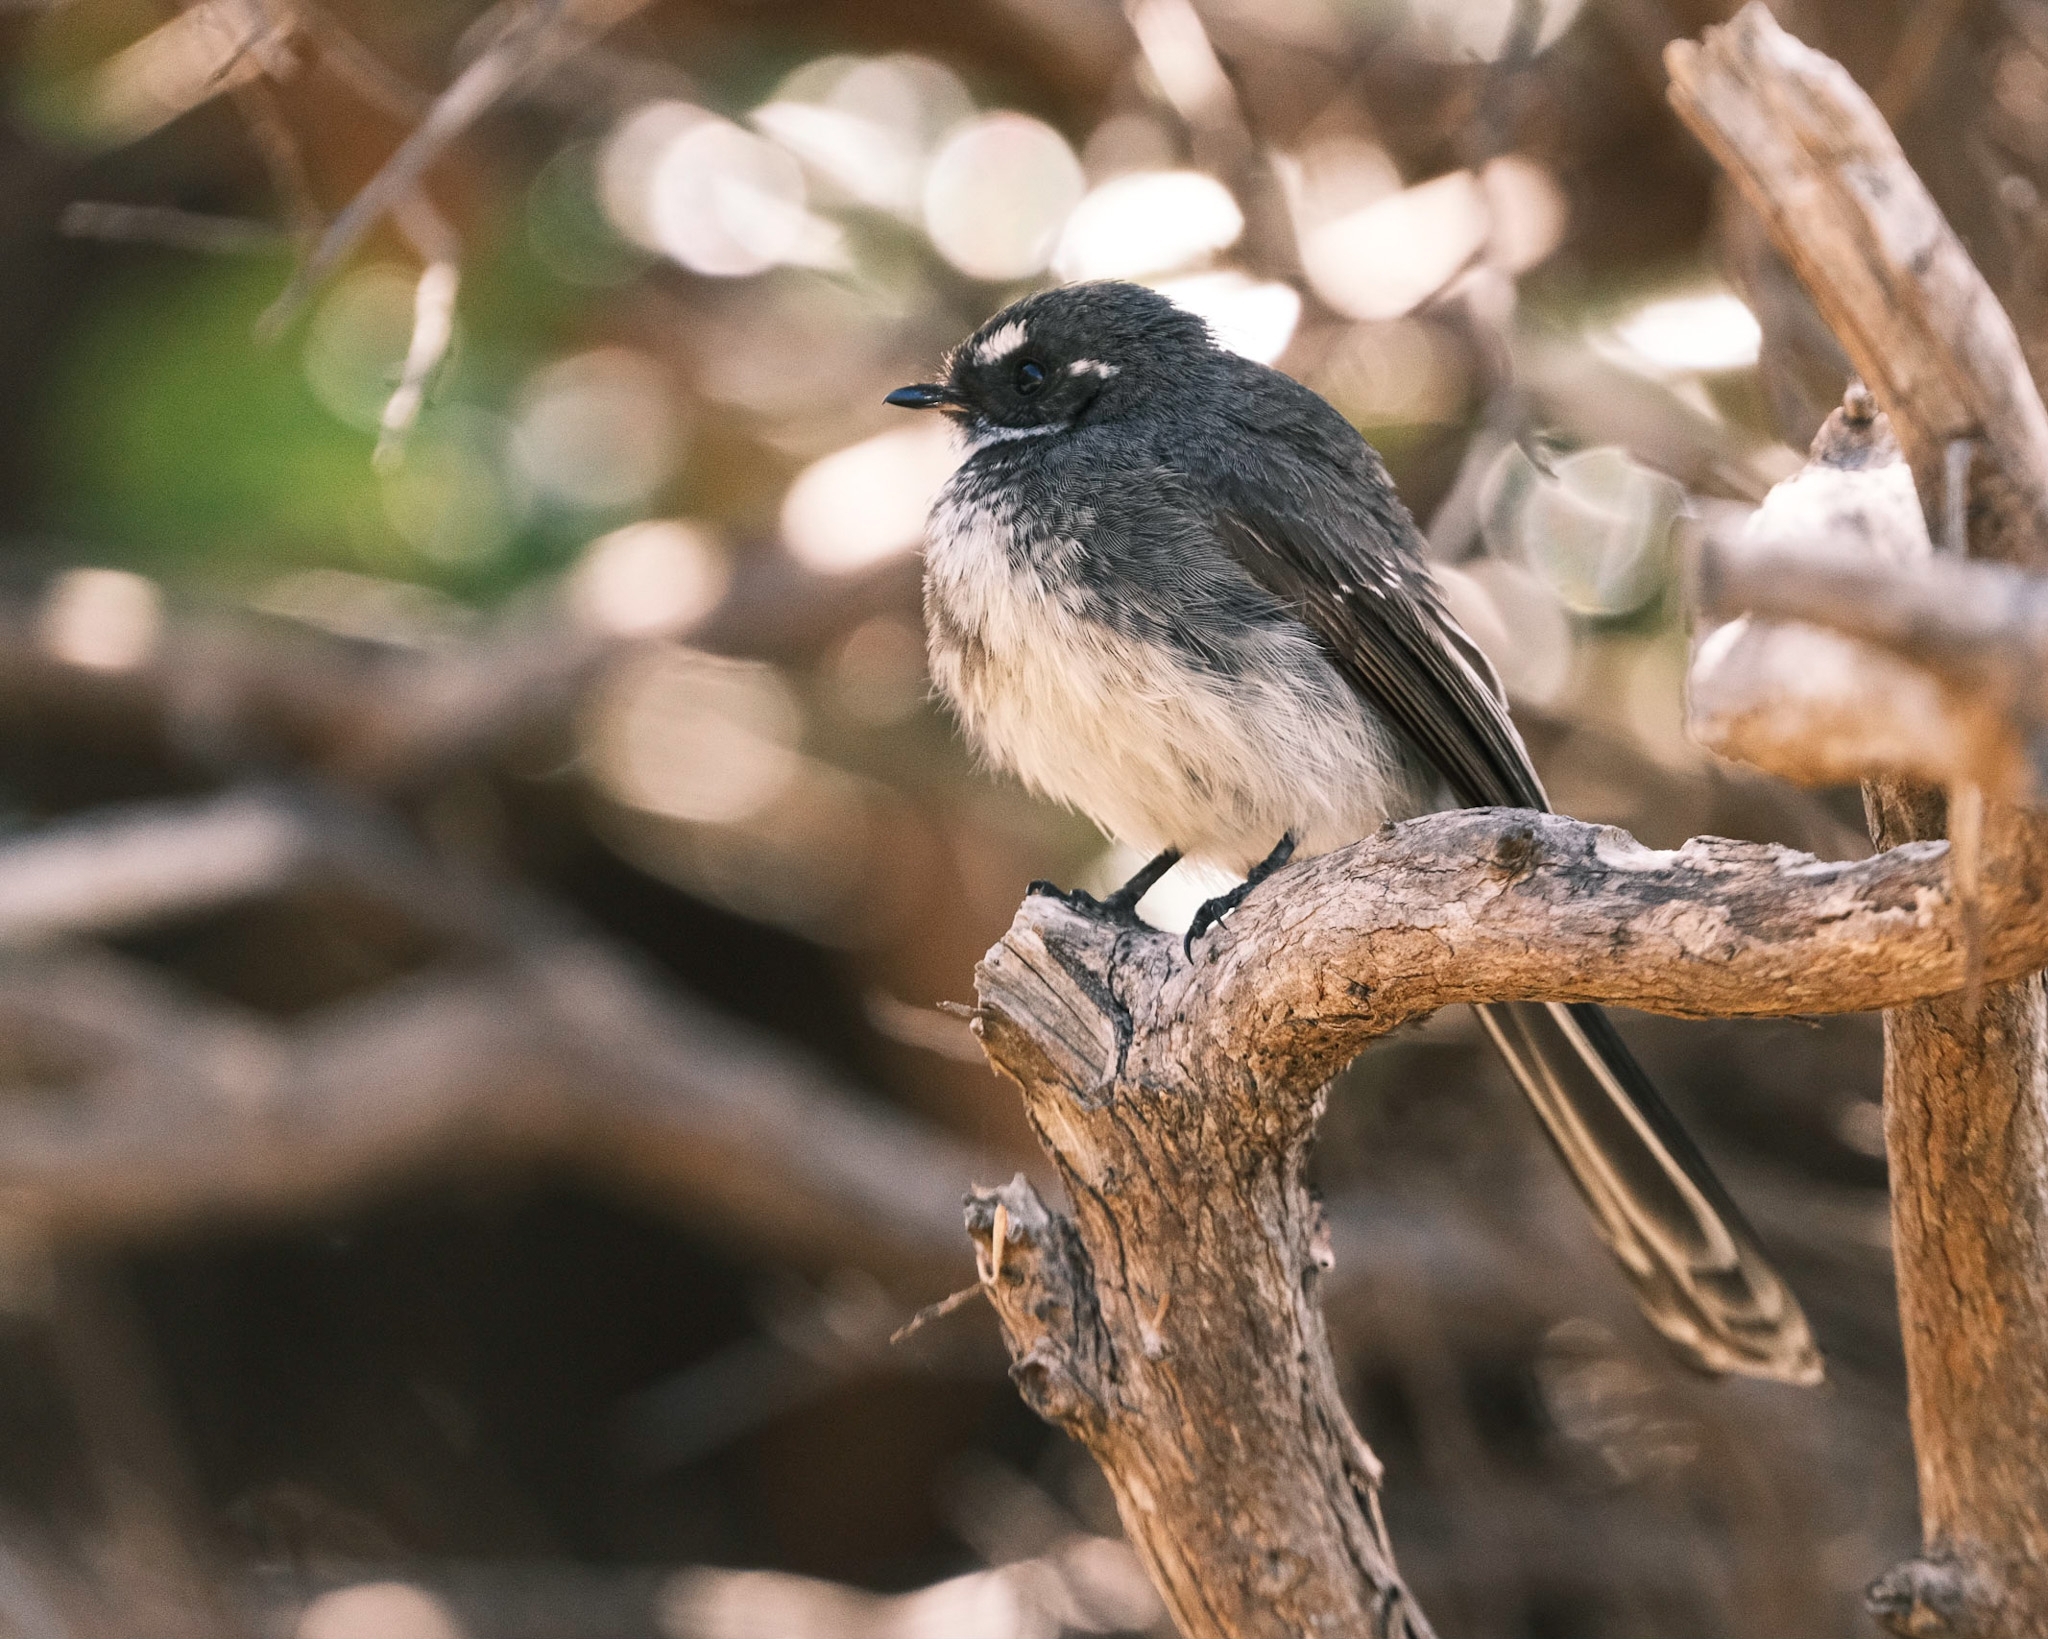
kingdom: Animalia
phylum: Chordata
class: Aves
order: Passeriformes
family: Rhipiduridae
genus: Rhipidura
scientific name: Rhipidura albiscapa
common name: Grey fantail
